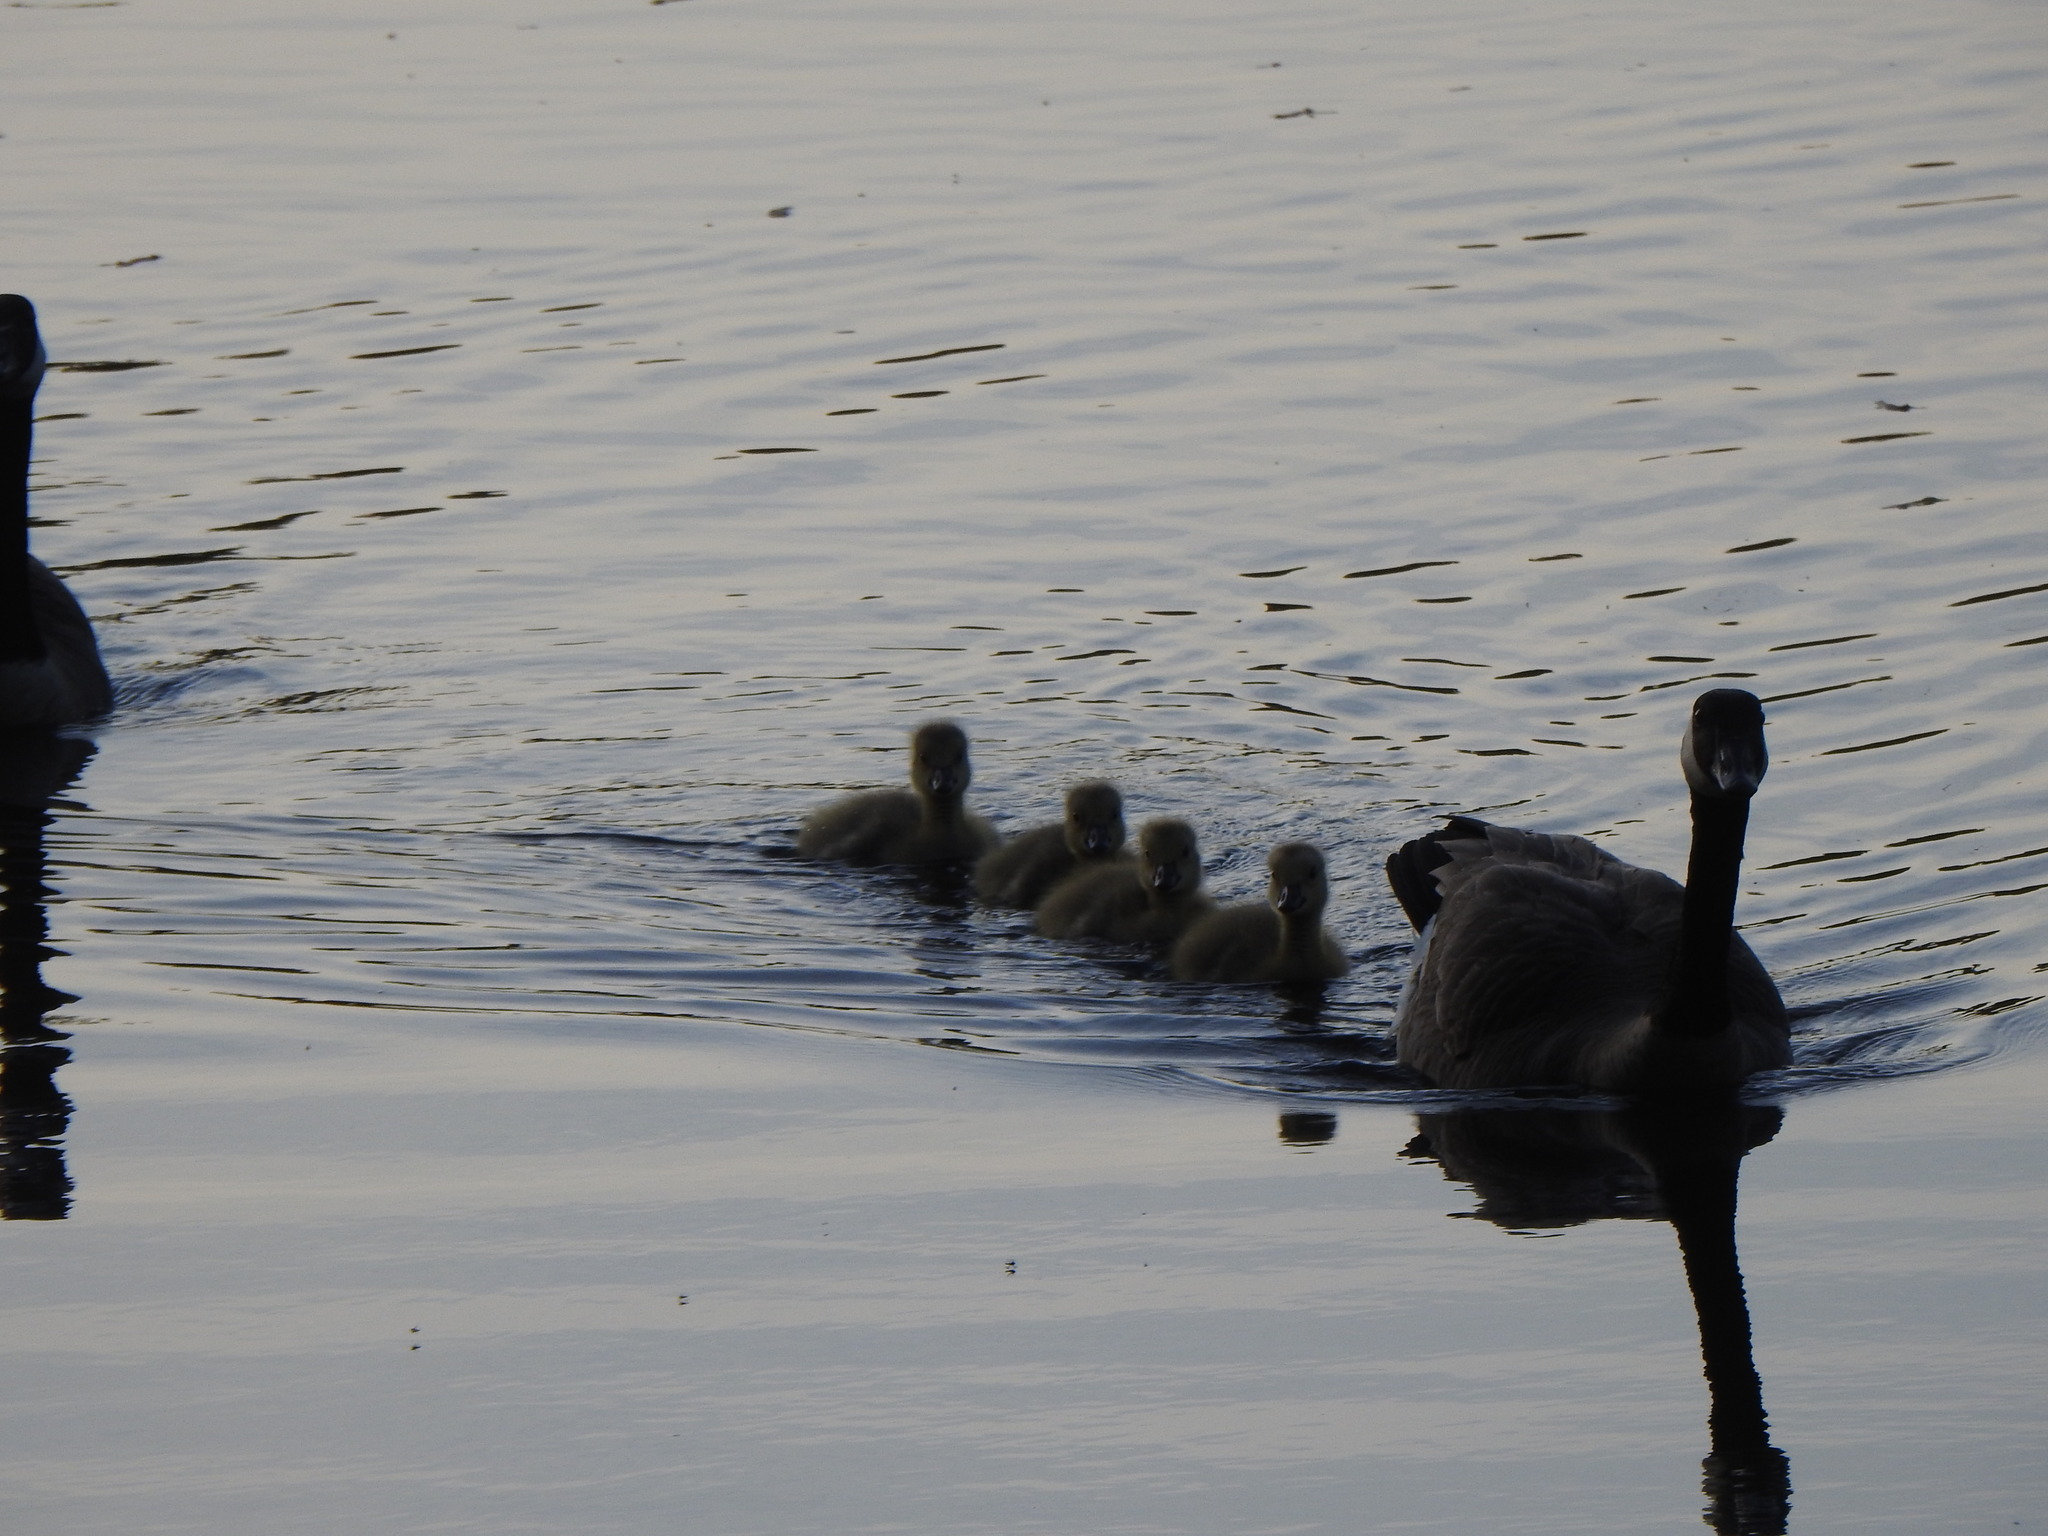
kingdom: Animalia
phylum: Chordata
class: Aves
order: Anseriformes
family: Anatidae
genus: Branta
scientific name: Branta canadensis
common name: Canada goose
